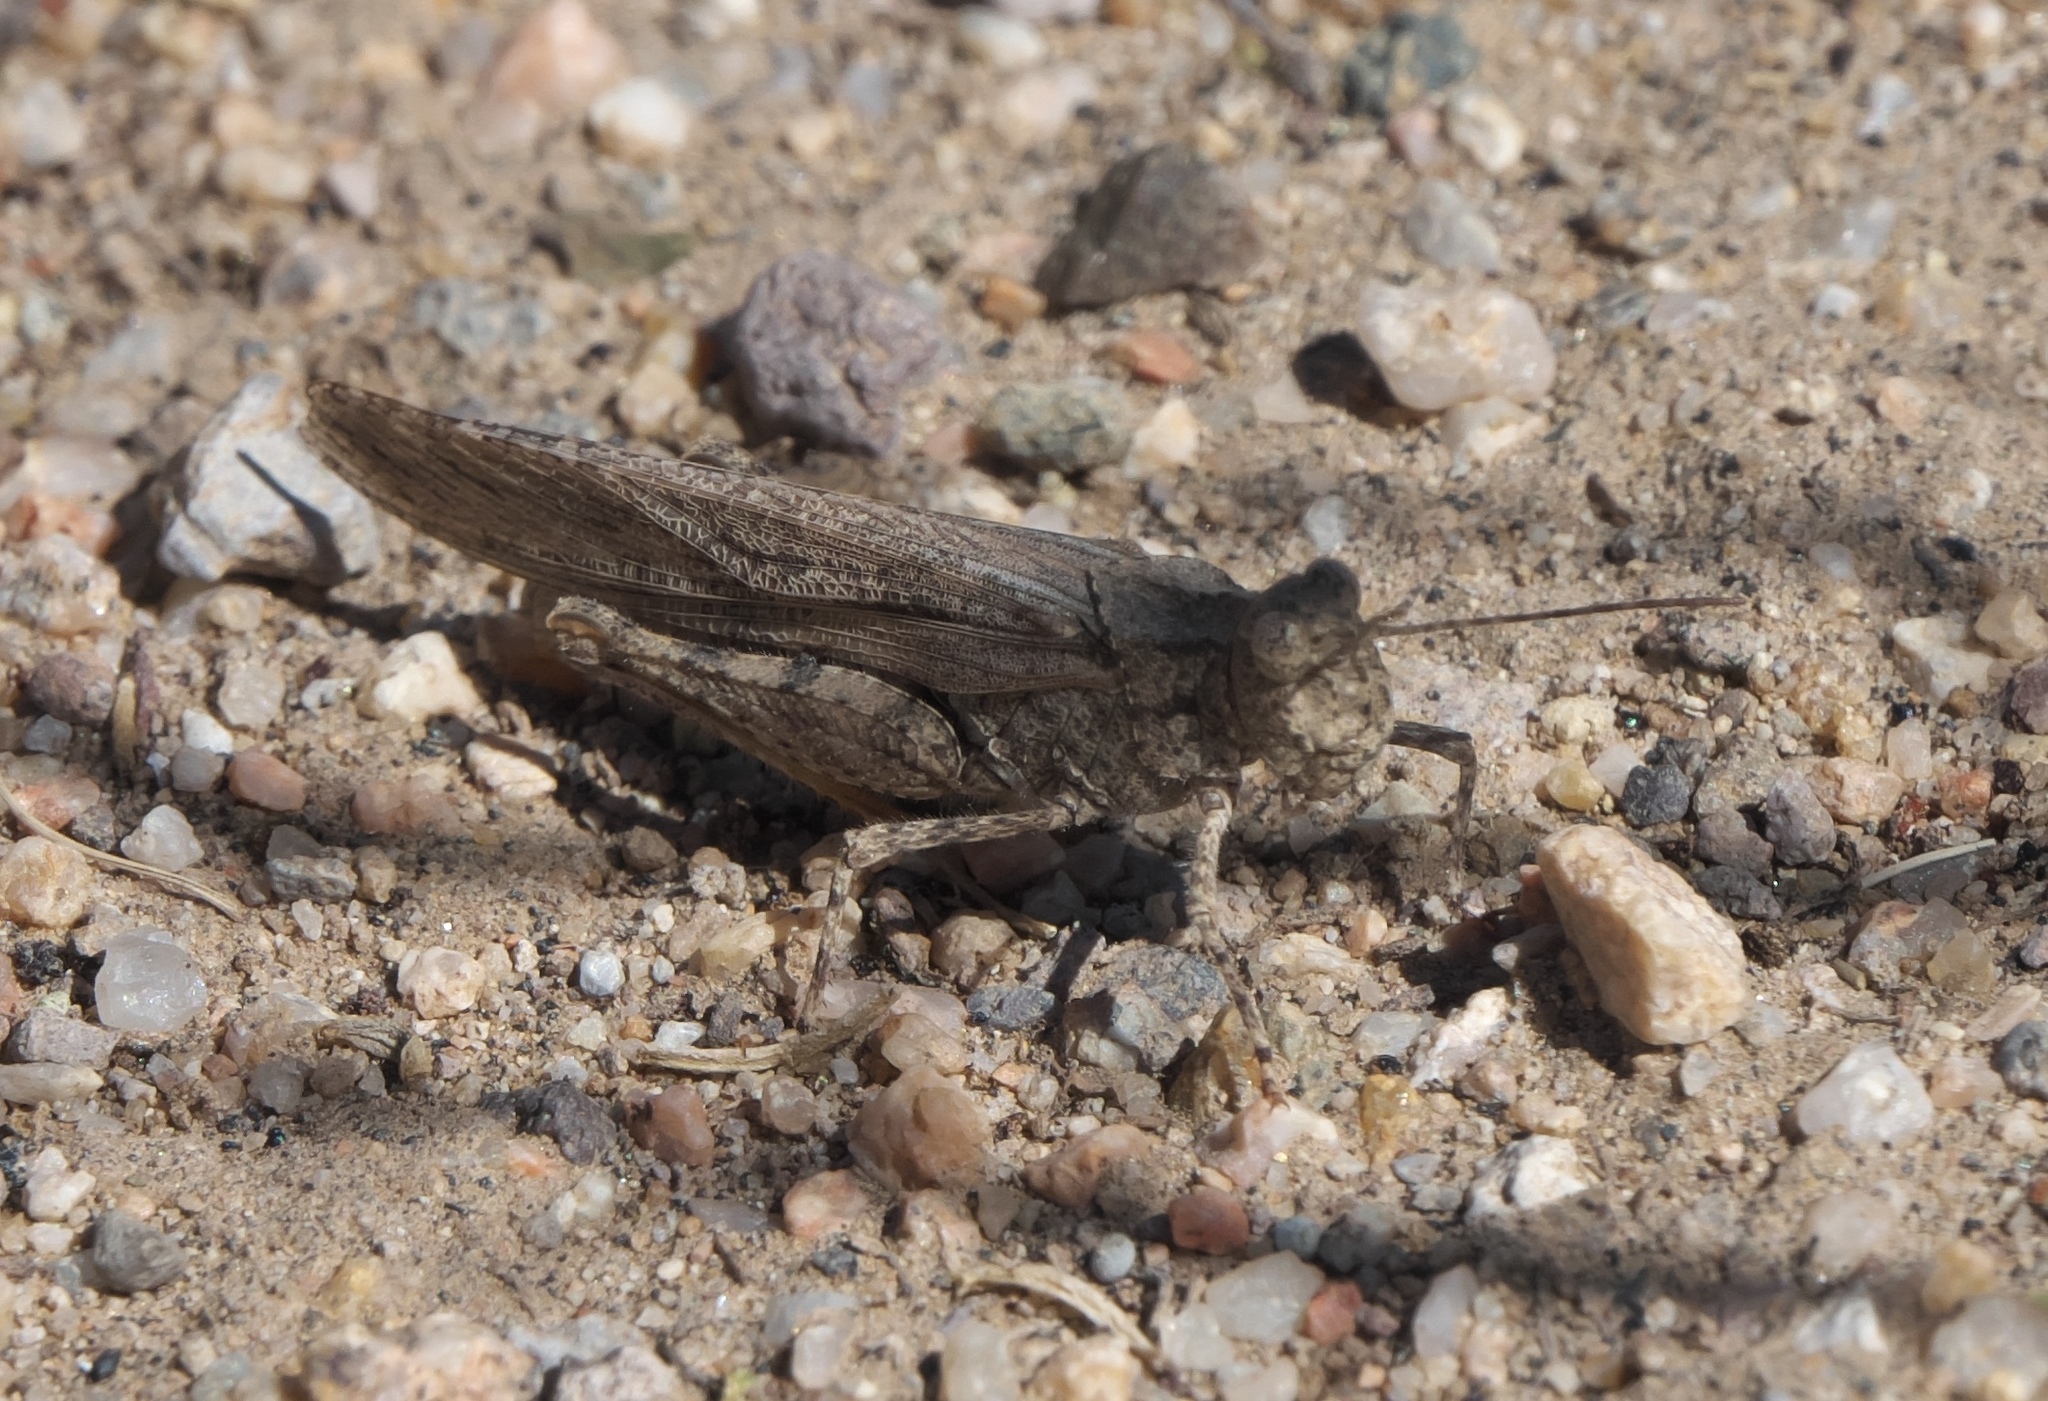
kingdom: Animalia
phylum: Arthropoda
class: Insecta
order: Orthoptera
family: Acrididae
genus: Trimerotropis
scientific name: Trimerotropis gracilis
